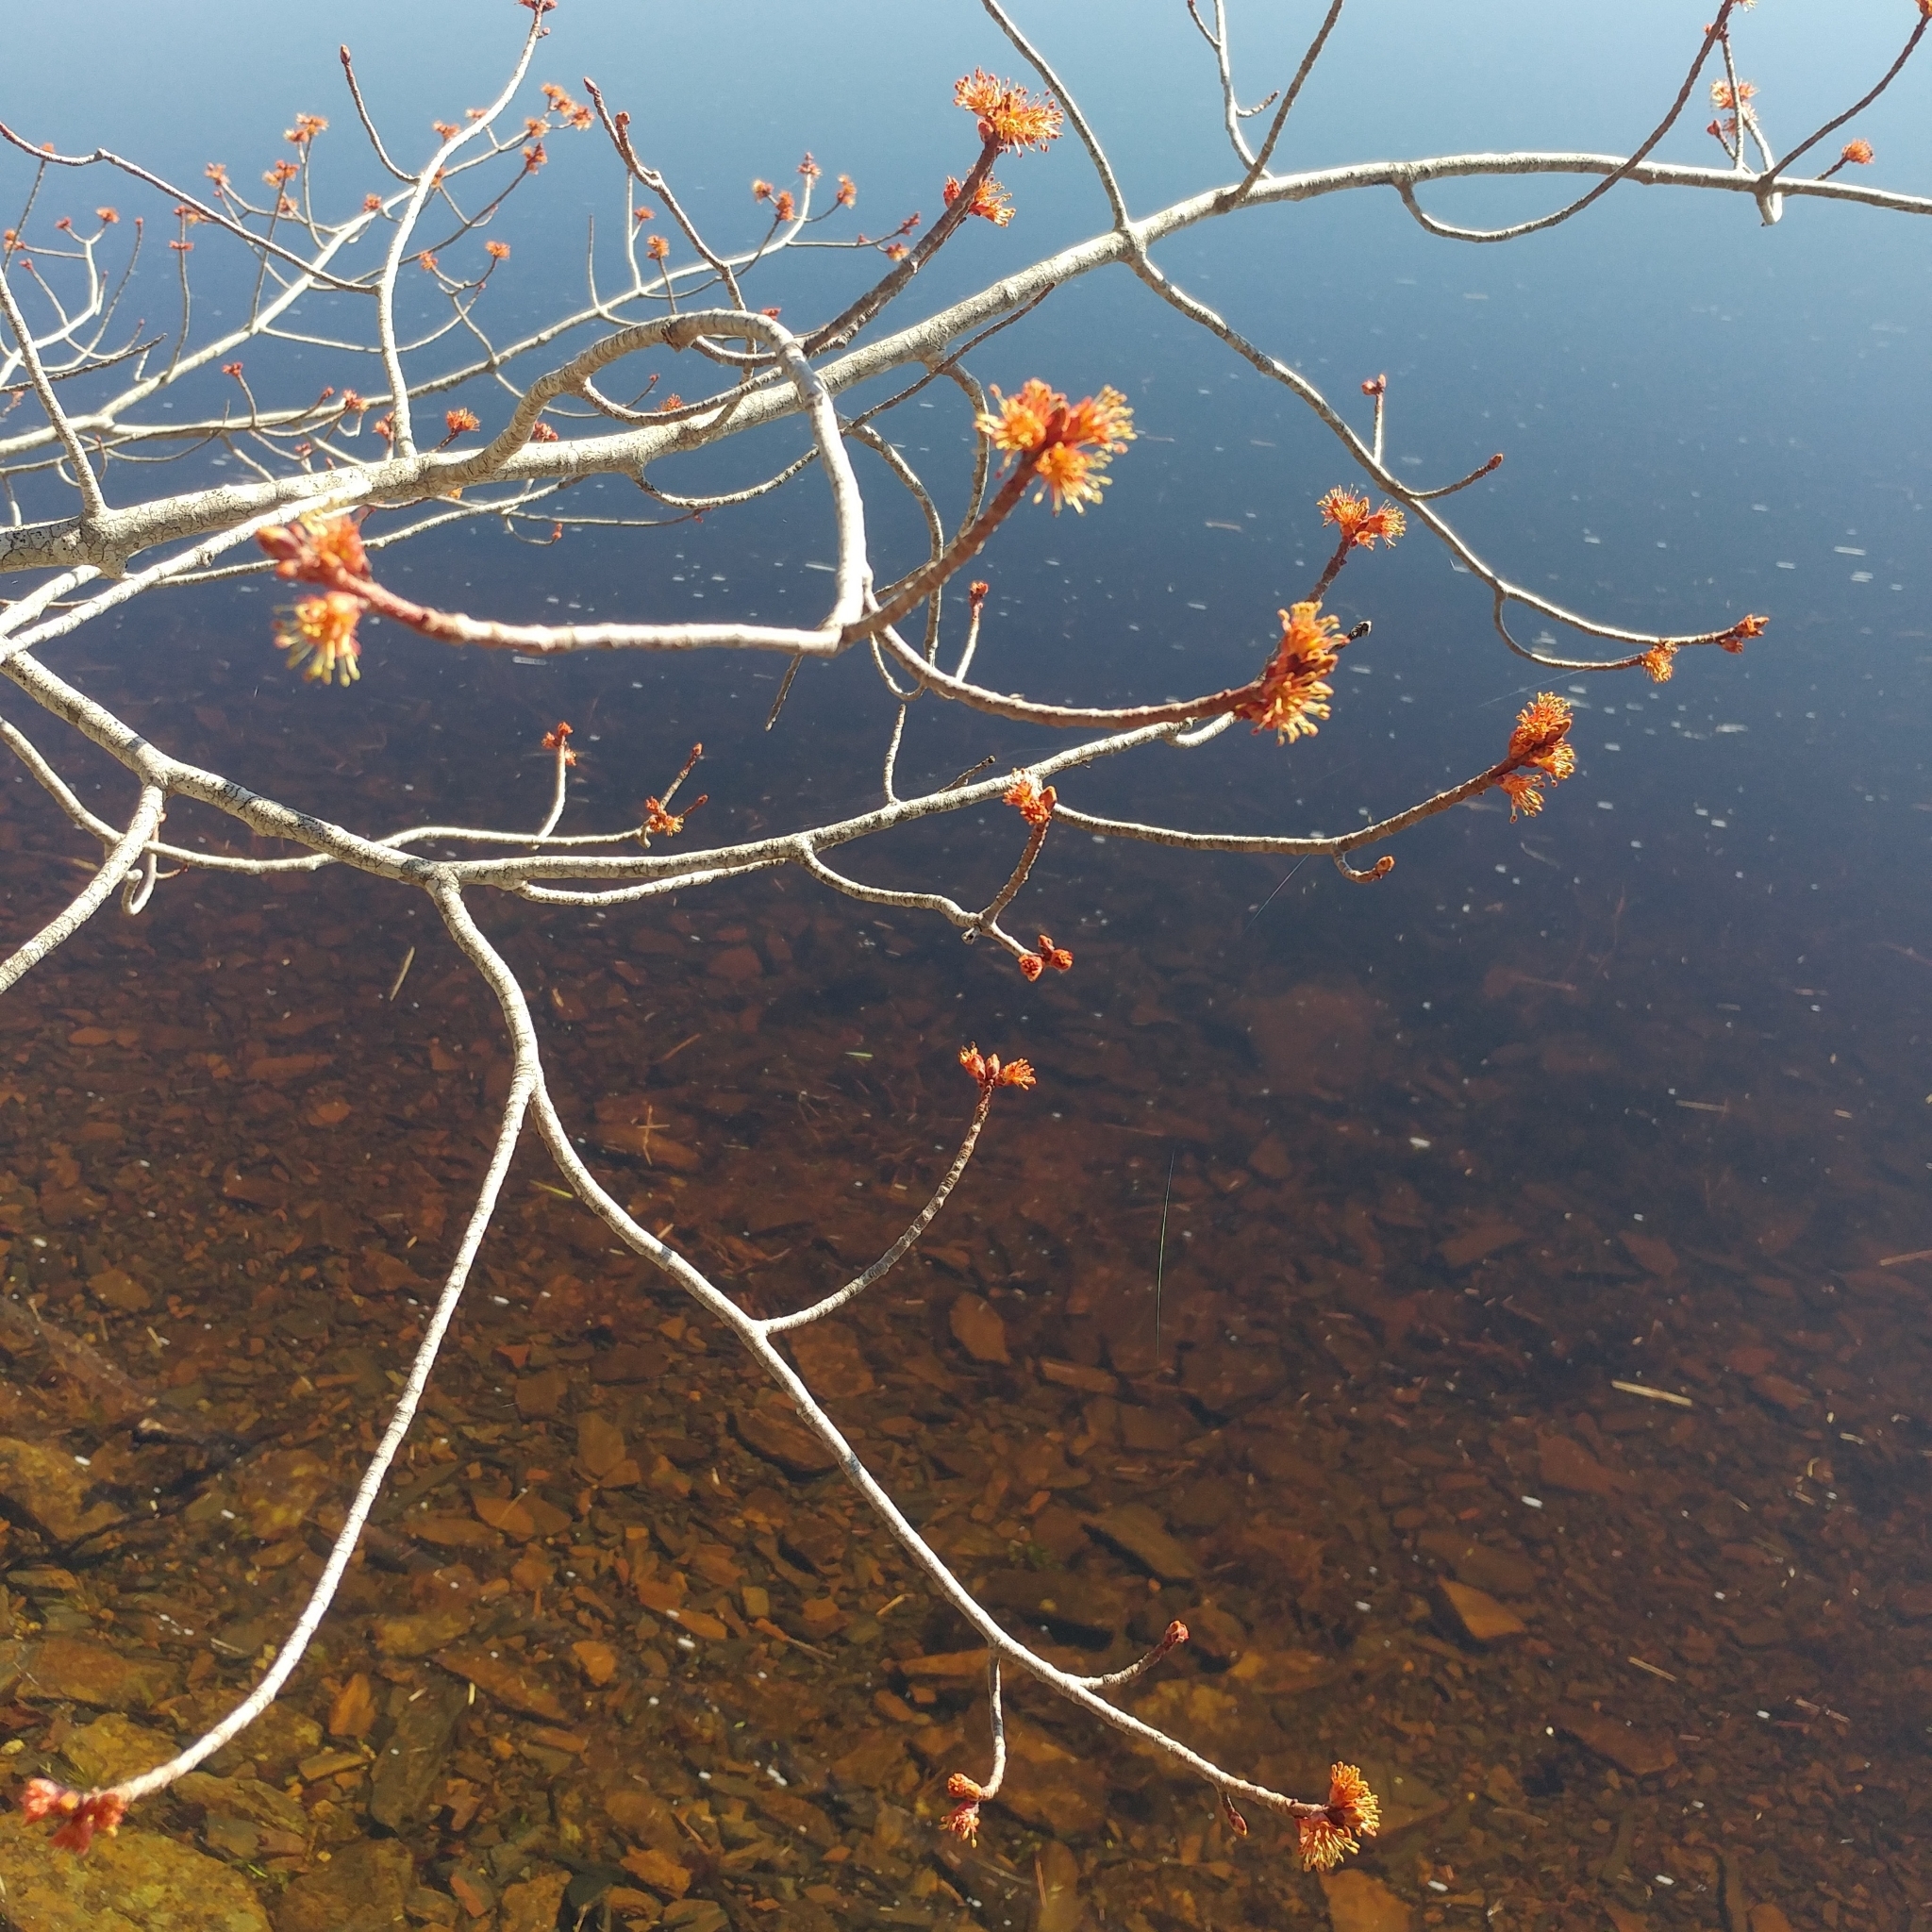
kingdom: Plantae
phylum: Tracheophyta
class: Magnoliopsida
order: Sapindales
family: Sapindaceae
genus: Acer
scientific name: Acer rubrum
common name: Red maple
